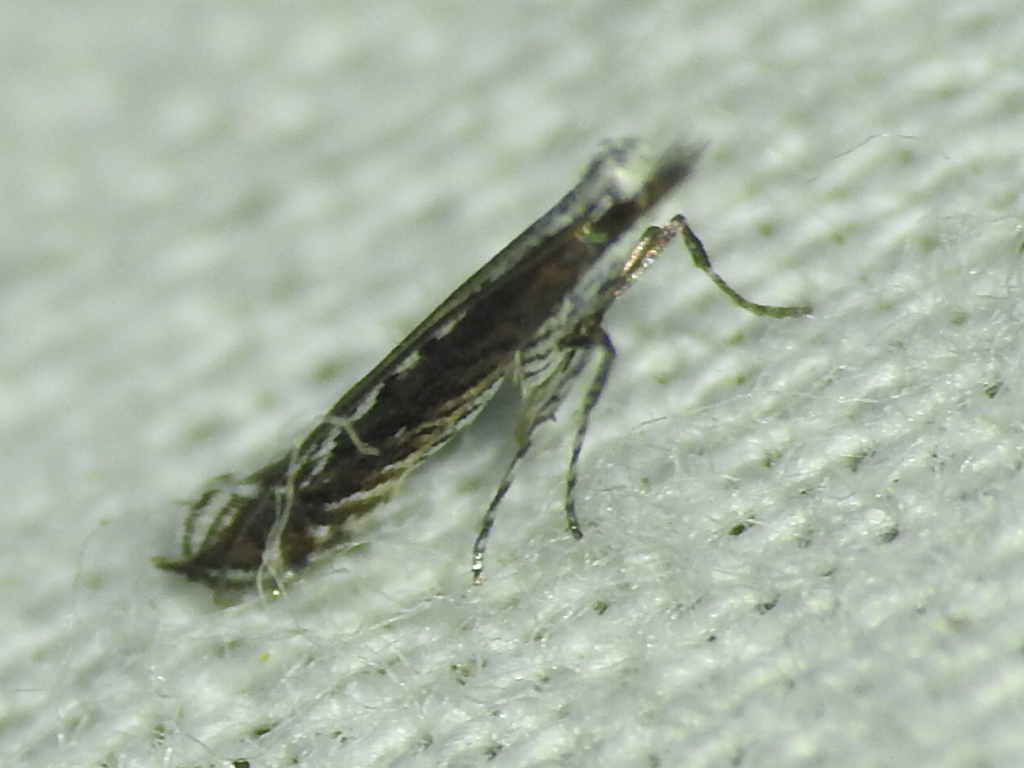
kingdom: Plantae
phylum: Rhodophyta
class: Florideophyceae
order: Gracilariales
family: Gracilariaceae
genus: Gracilaria
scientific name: Gracilaria
